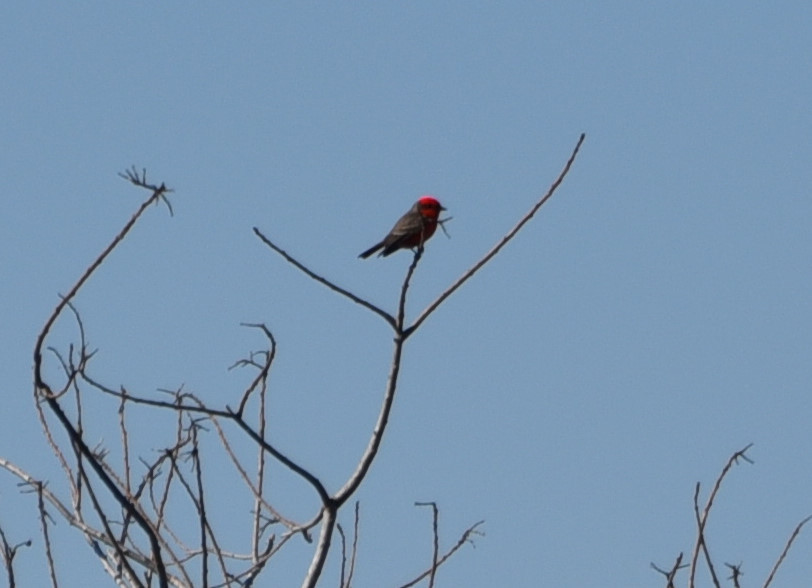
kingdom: Animalia
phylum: Chordata
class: Aves
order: Passeriformes
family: Tyrannidae
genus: Pyrocephalus
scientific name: Pyrocephalus rubinus
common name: Vermilion flycatcher
